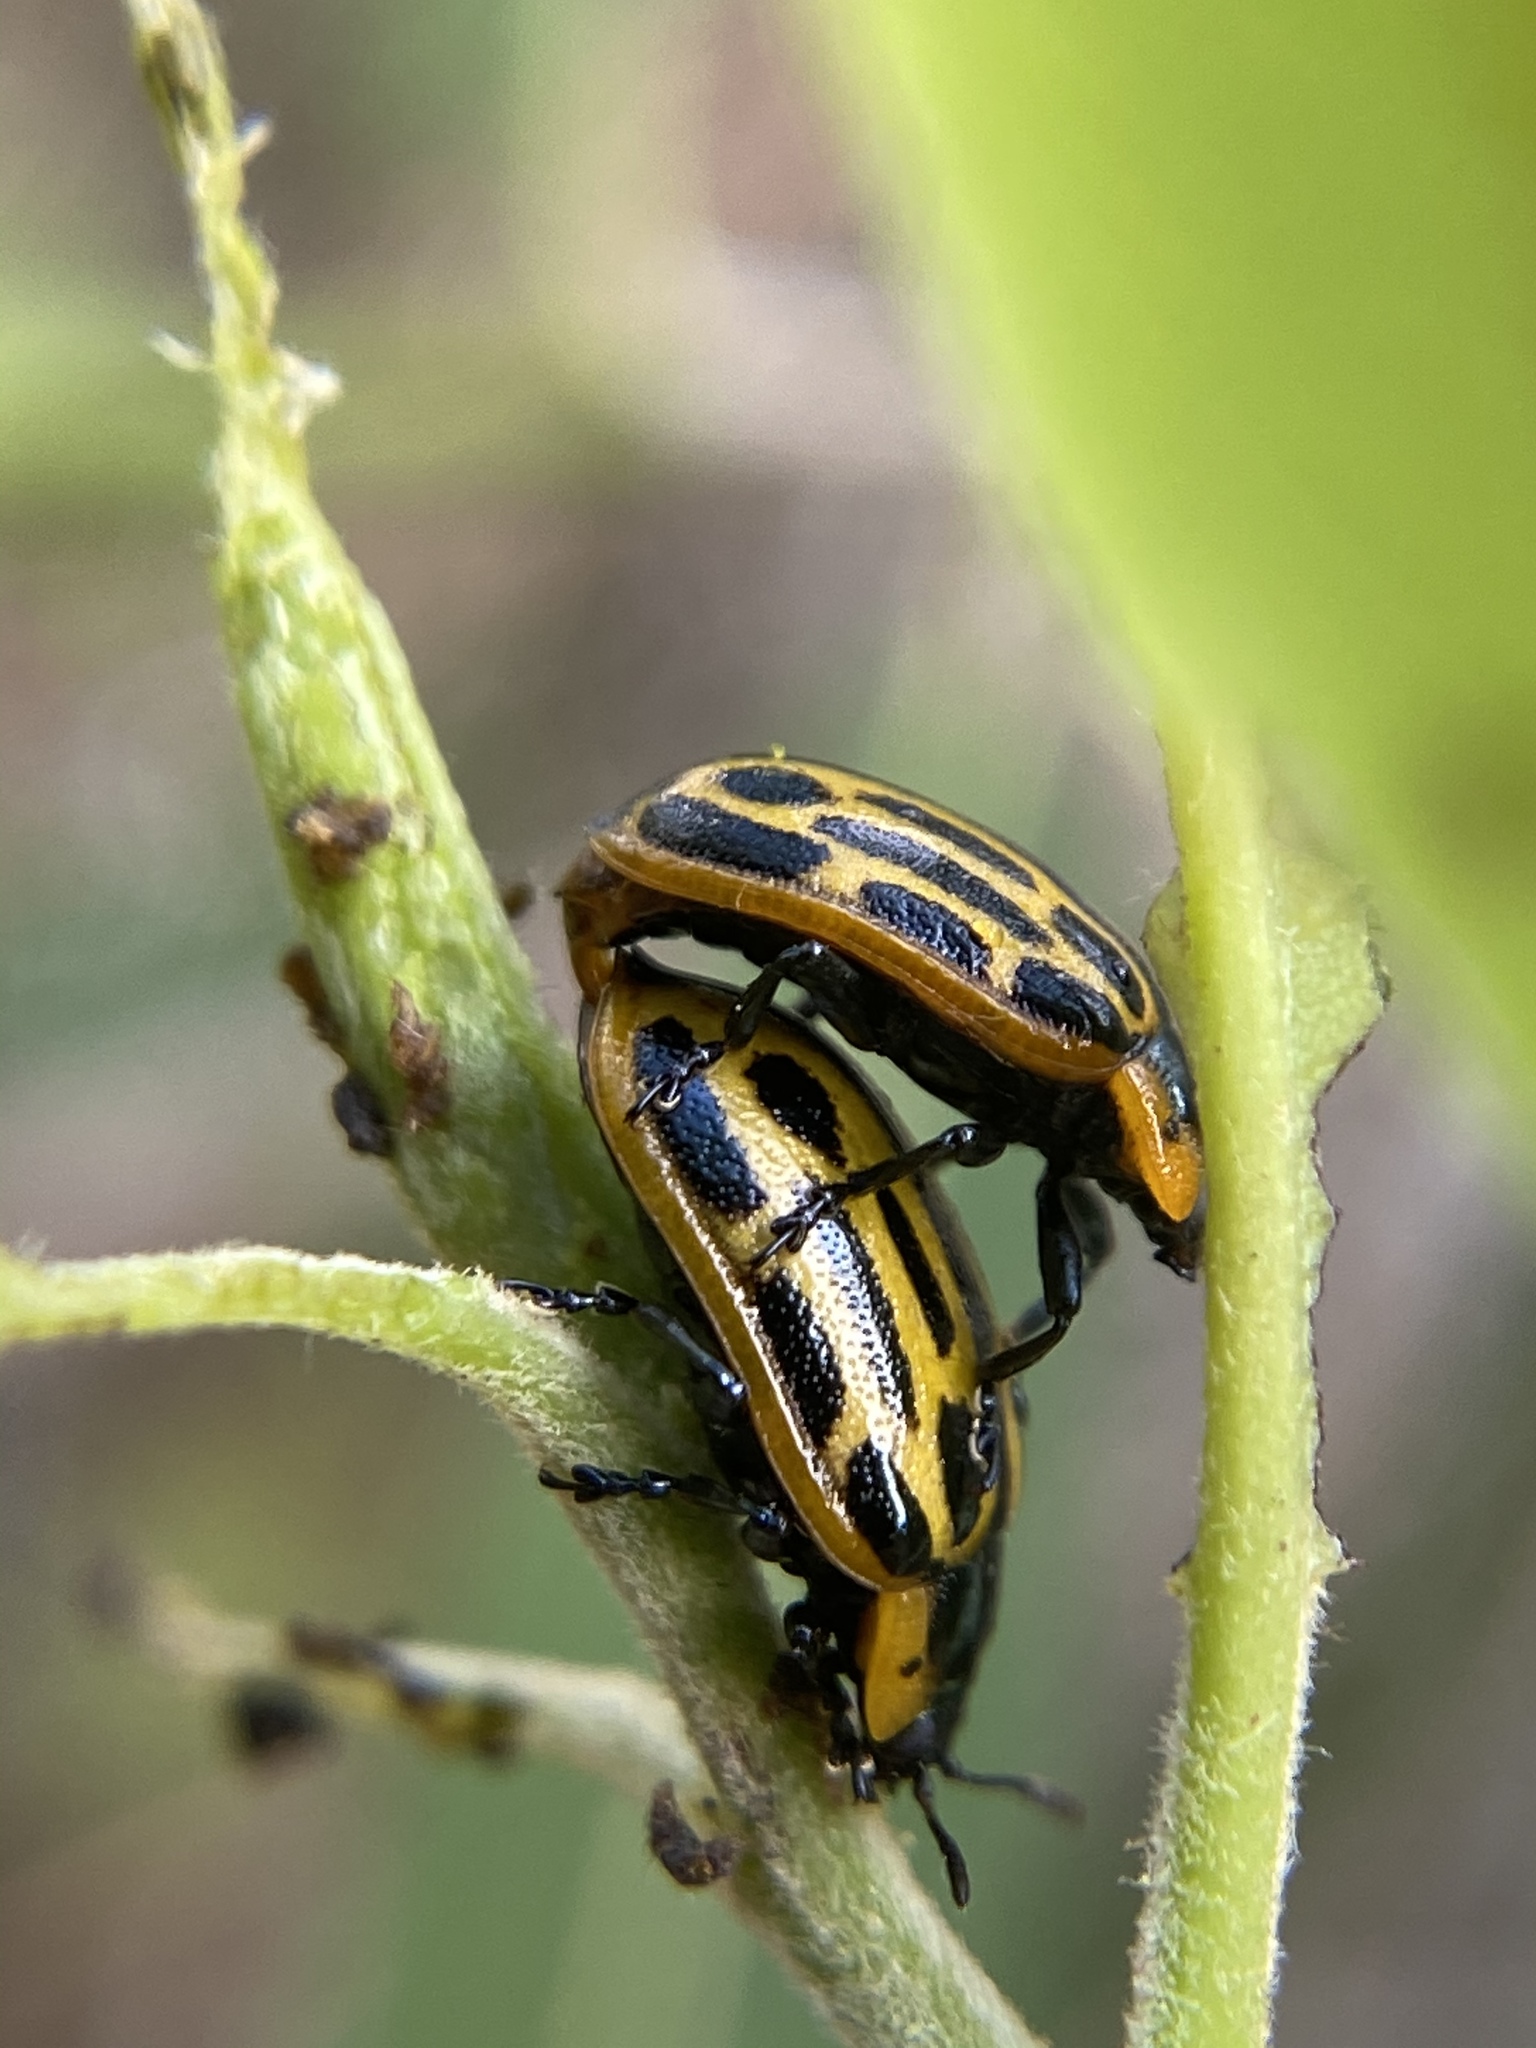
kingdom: Animalia
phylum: Arthropoda
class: Insecta
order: Coleoptera
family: Chrysomelidae
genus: Aethiopocassis
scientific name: Aethiopocassis scripta
